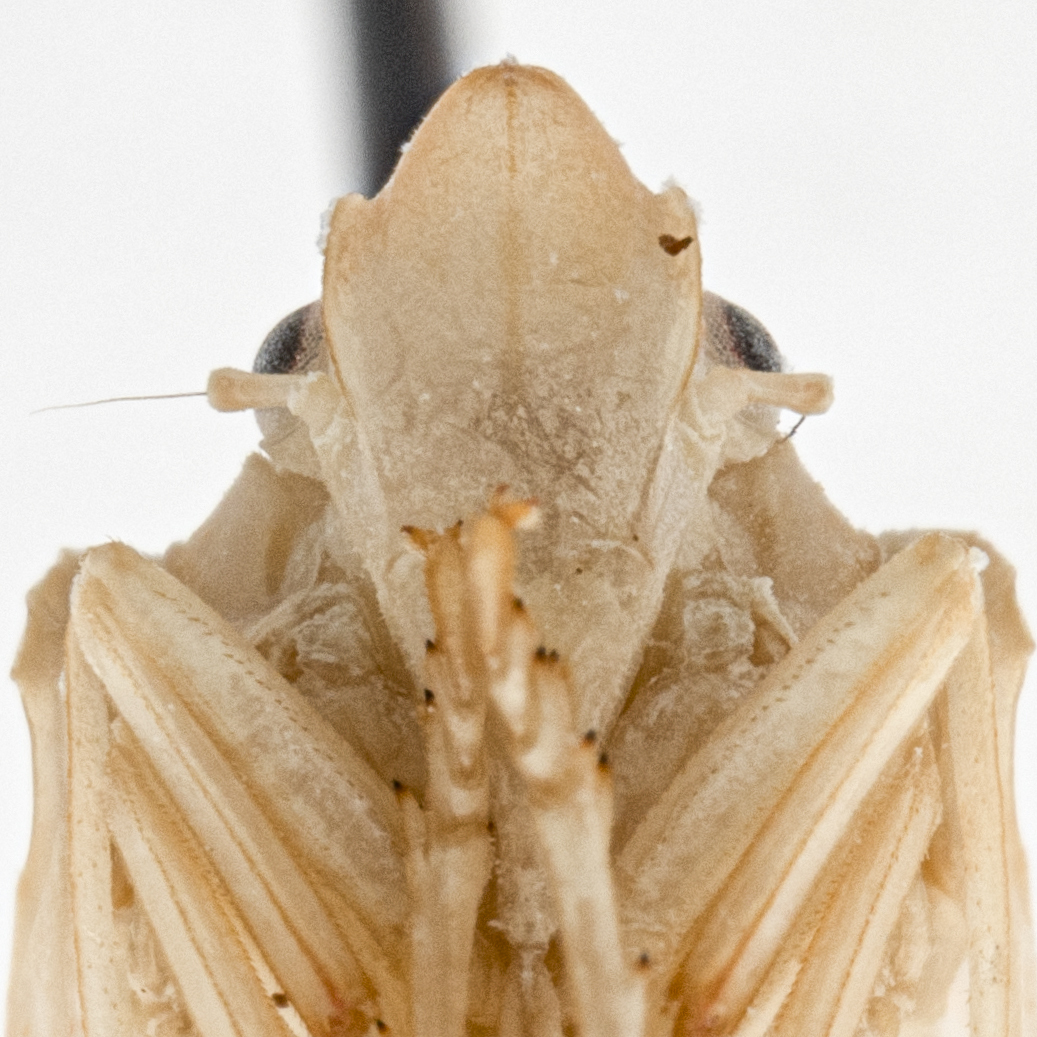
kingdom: Animalia
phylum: Arthropoda
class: Insecta
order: Hemiptera
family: Flatidae
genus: Neocromna
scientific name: Neocromna bistrigutata
